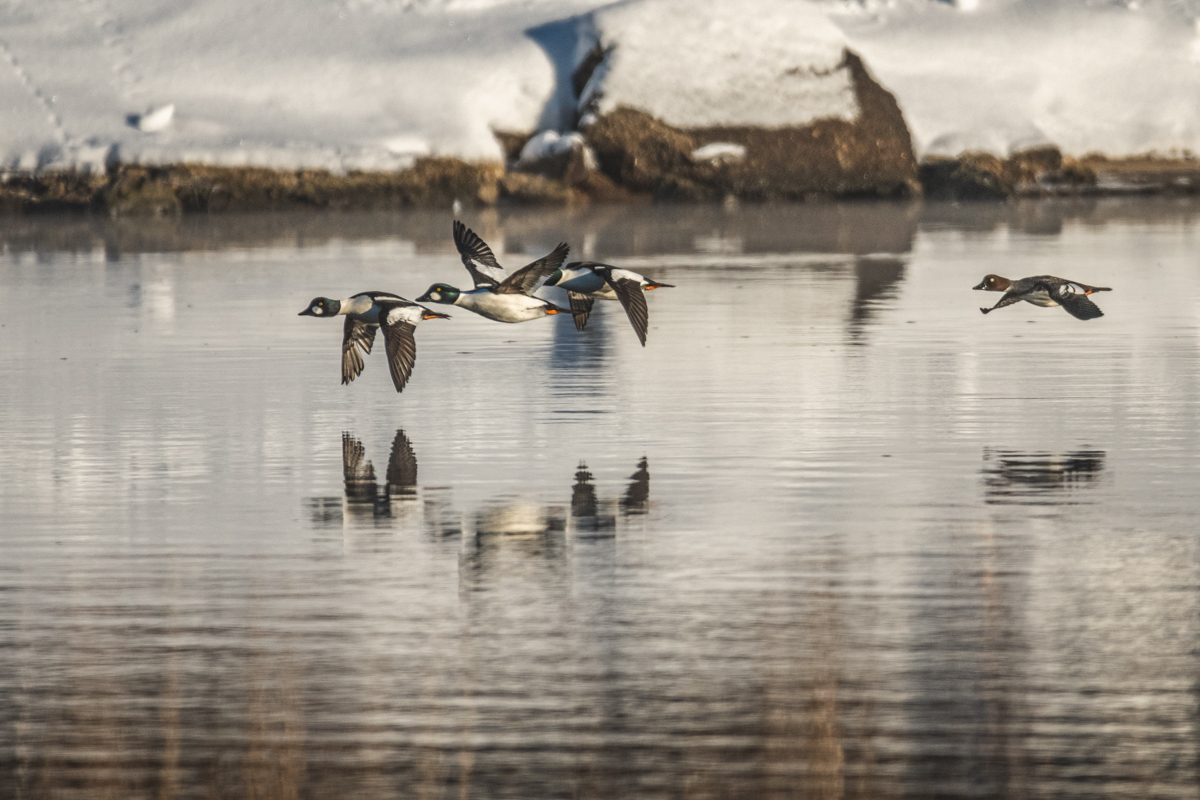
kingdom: Animalia
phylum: Chordata
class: Aves
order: Anseriformes
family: Anatidae
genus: Bucephala
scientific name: Bucephala clangula
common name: Common goldeneye
